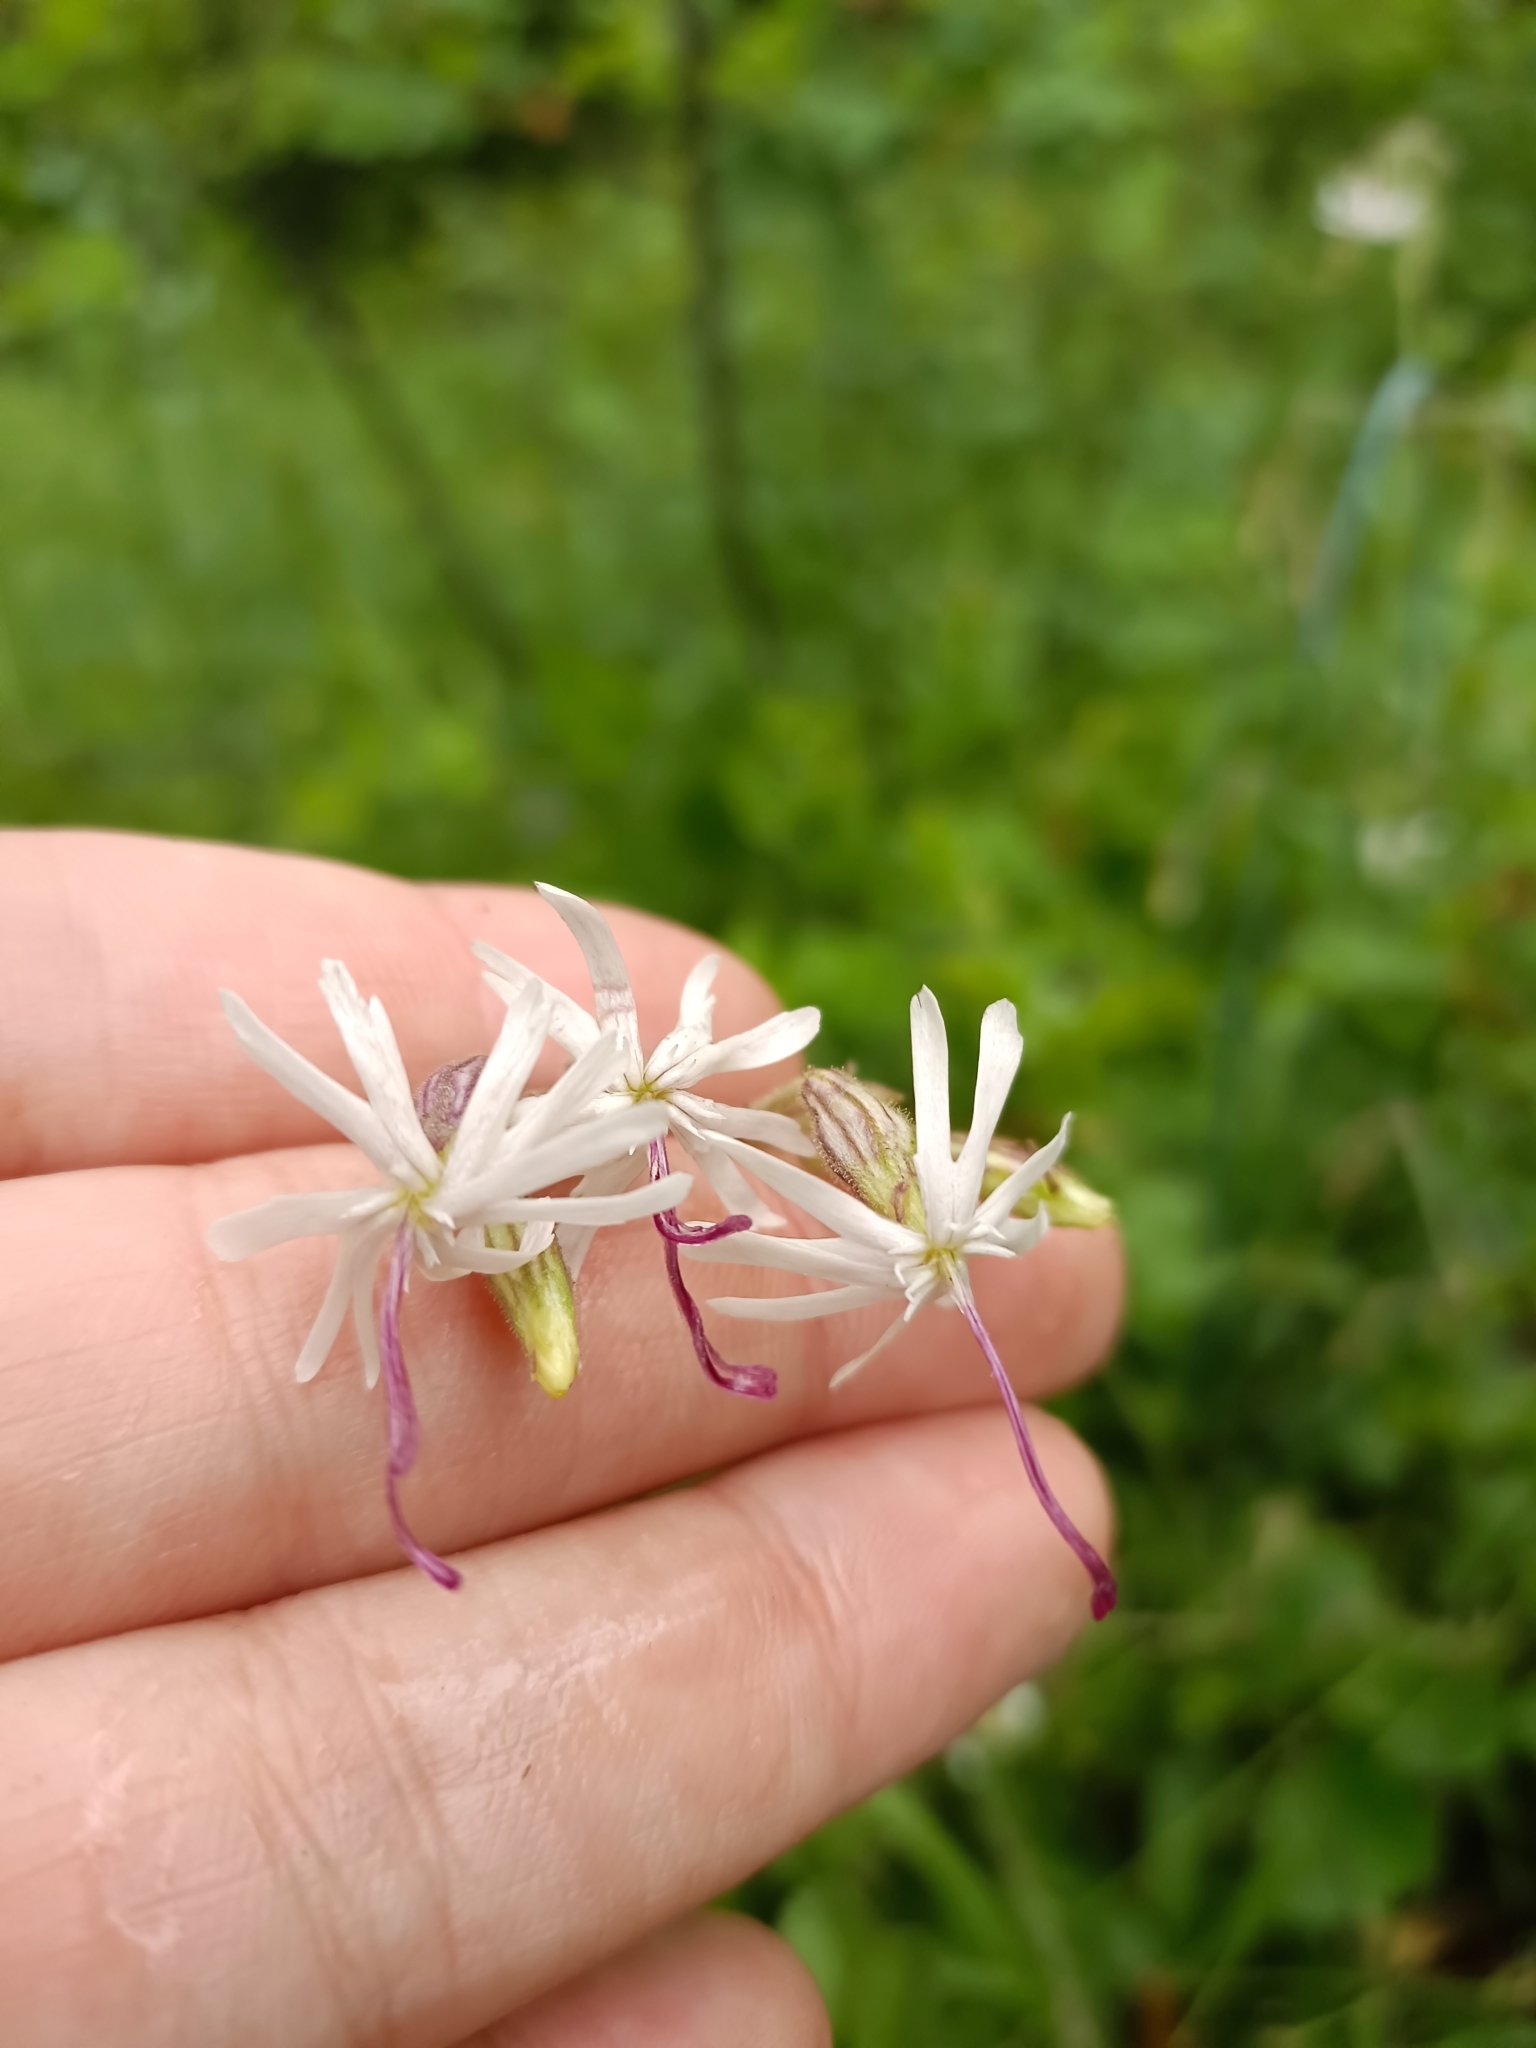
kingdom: Plantae
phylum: Tracheophyta
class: Magnoliopsida
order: Caryophyllales
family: Caryophyllaceae
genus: Silene
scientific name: Silene nutans
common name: Nottingham catchfly
